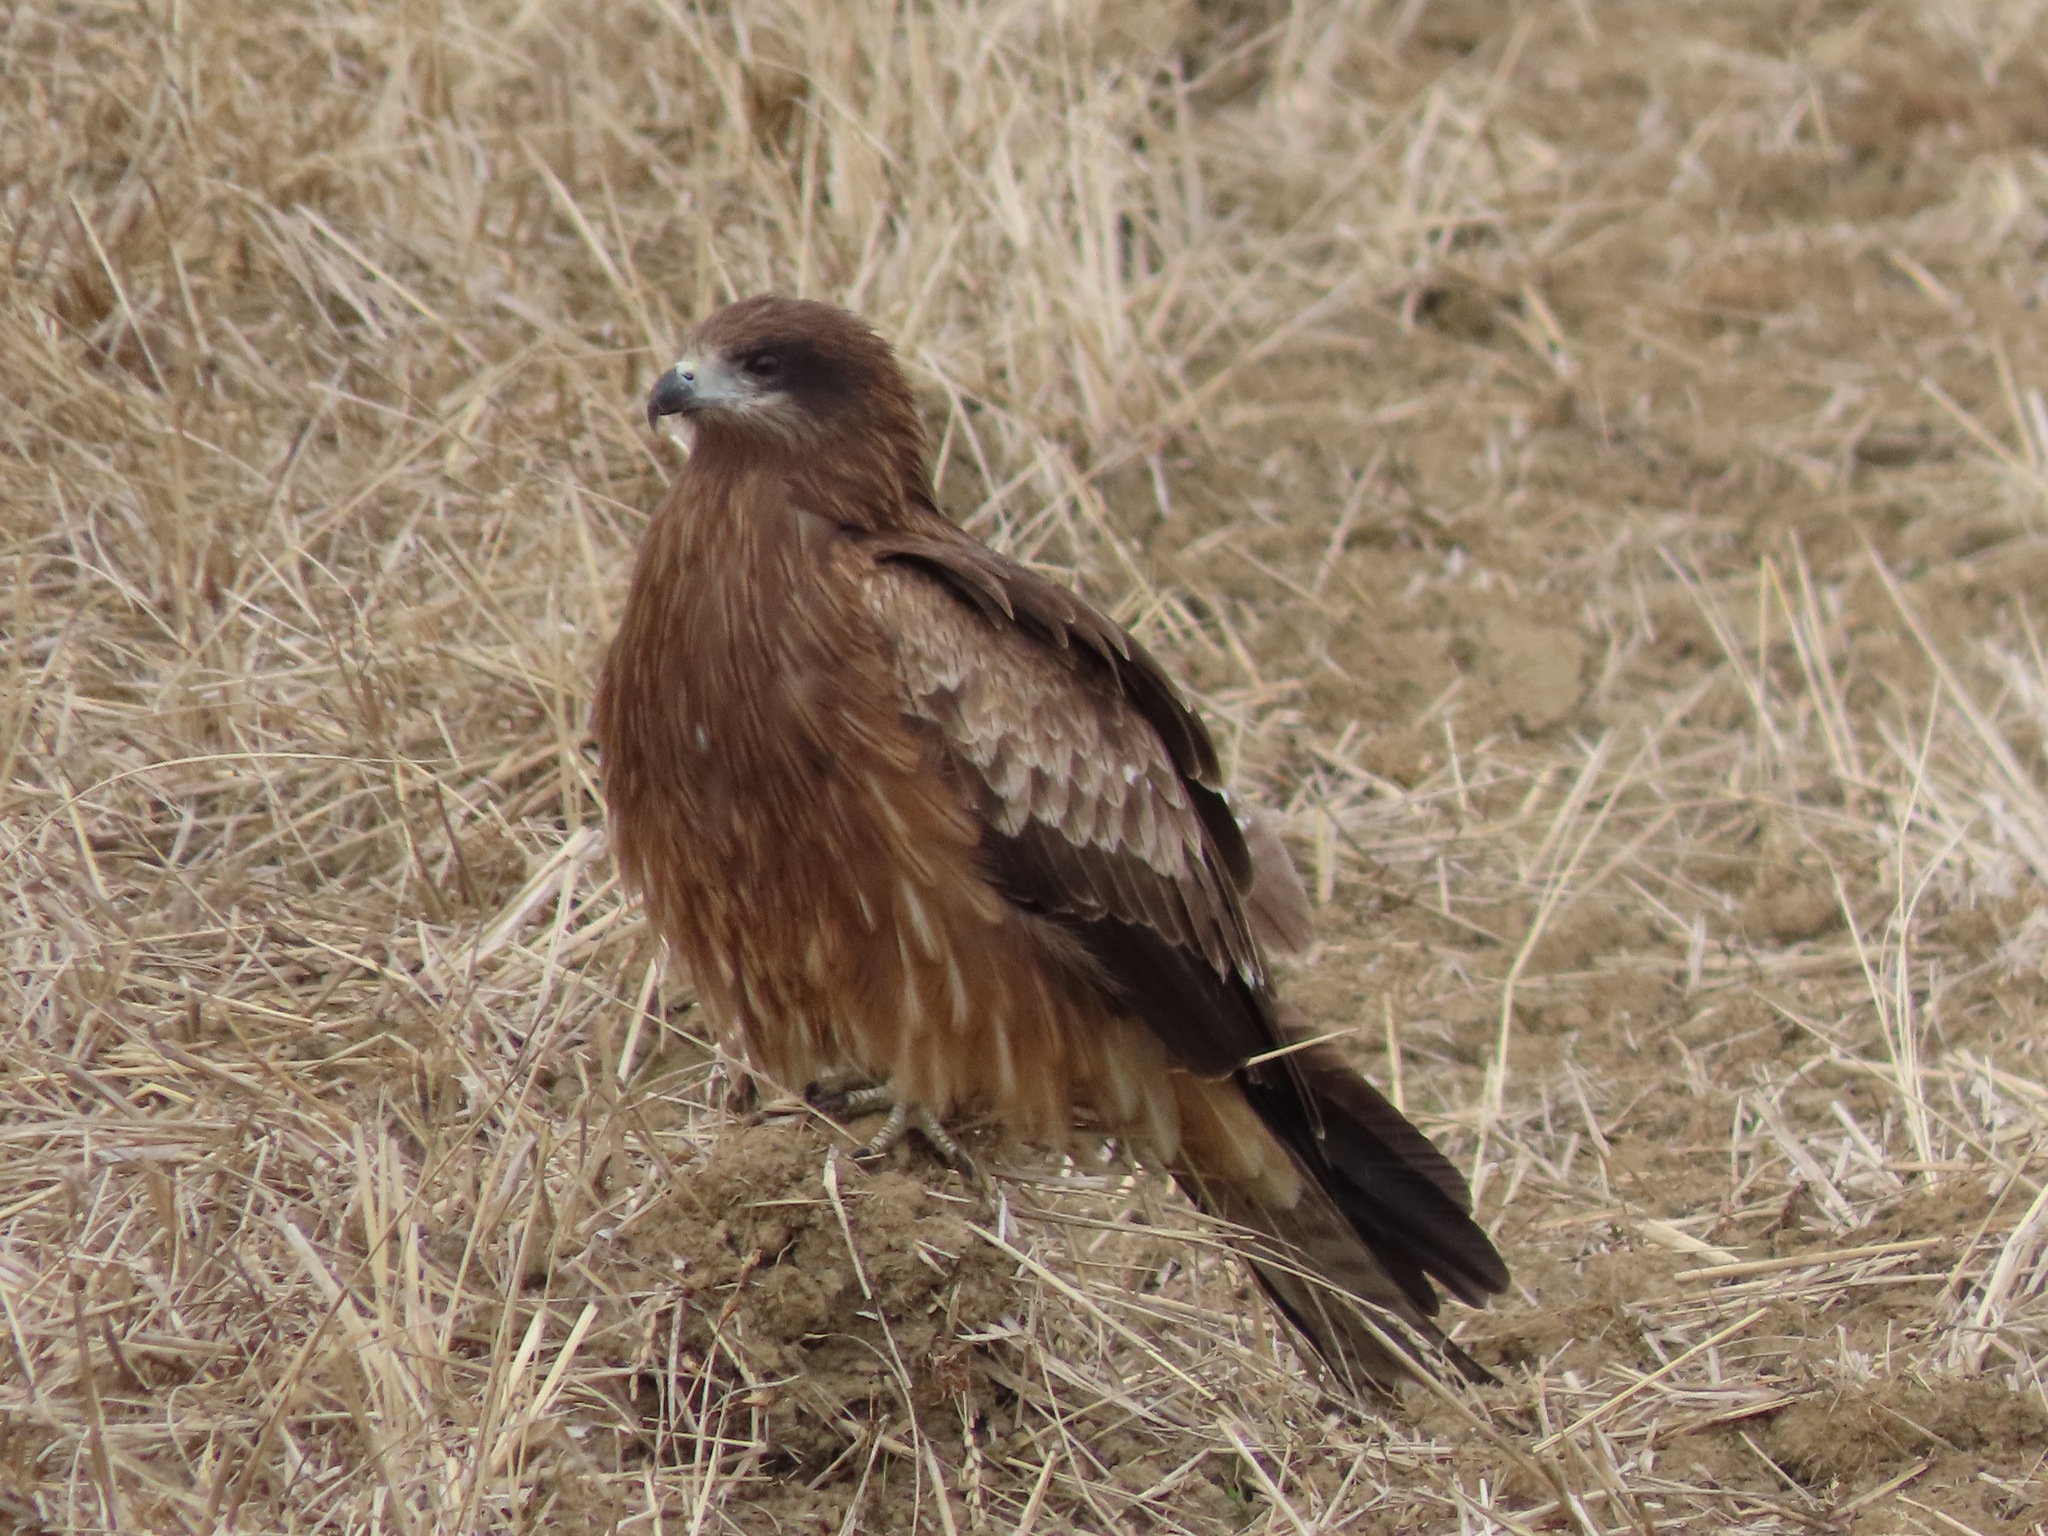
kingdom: Animalia
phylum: Chordata
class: Aves
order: Accipitriformes
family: Accipitridae
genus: Milvus
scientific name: Milvus migrans
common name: Black kite
